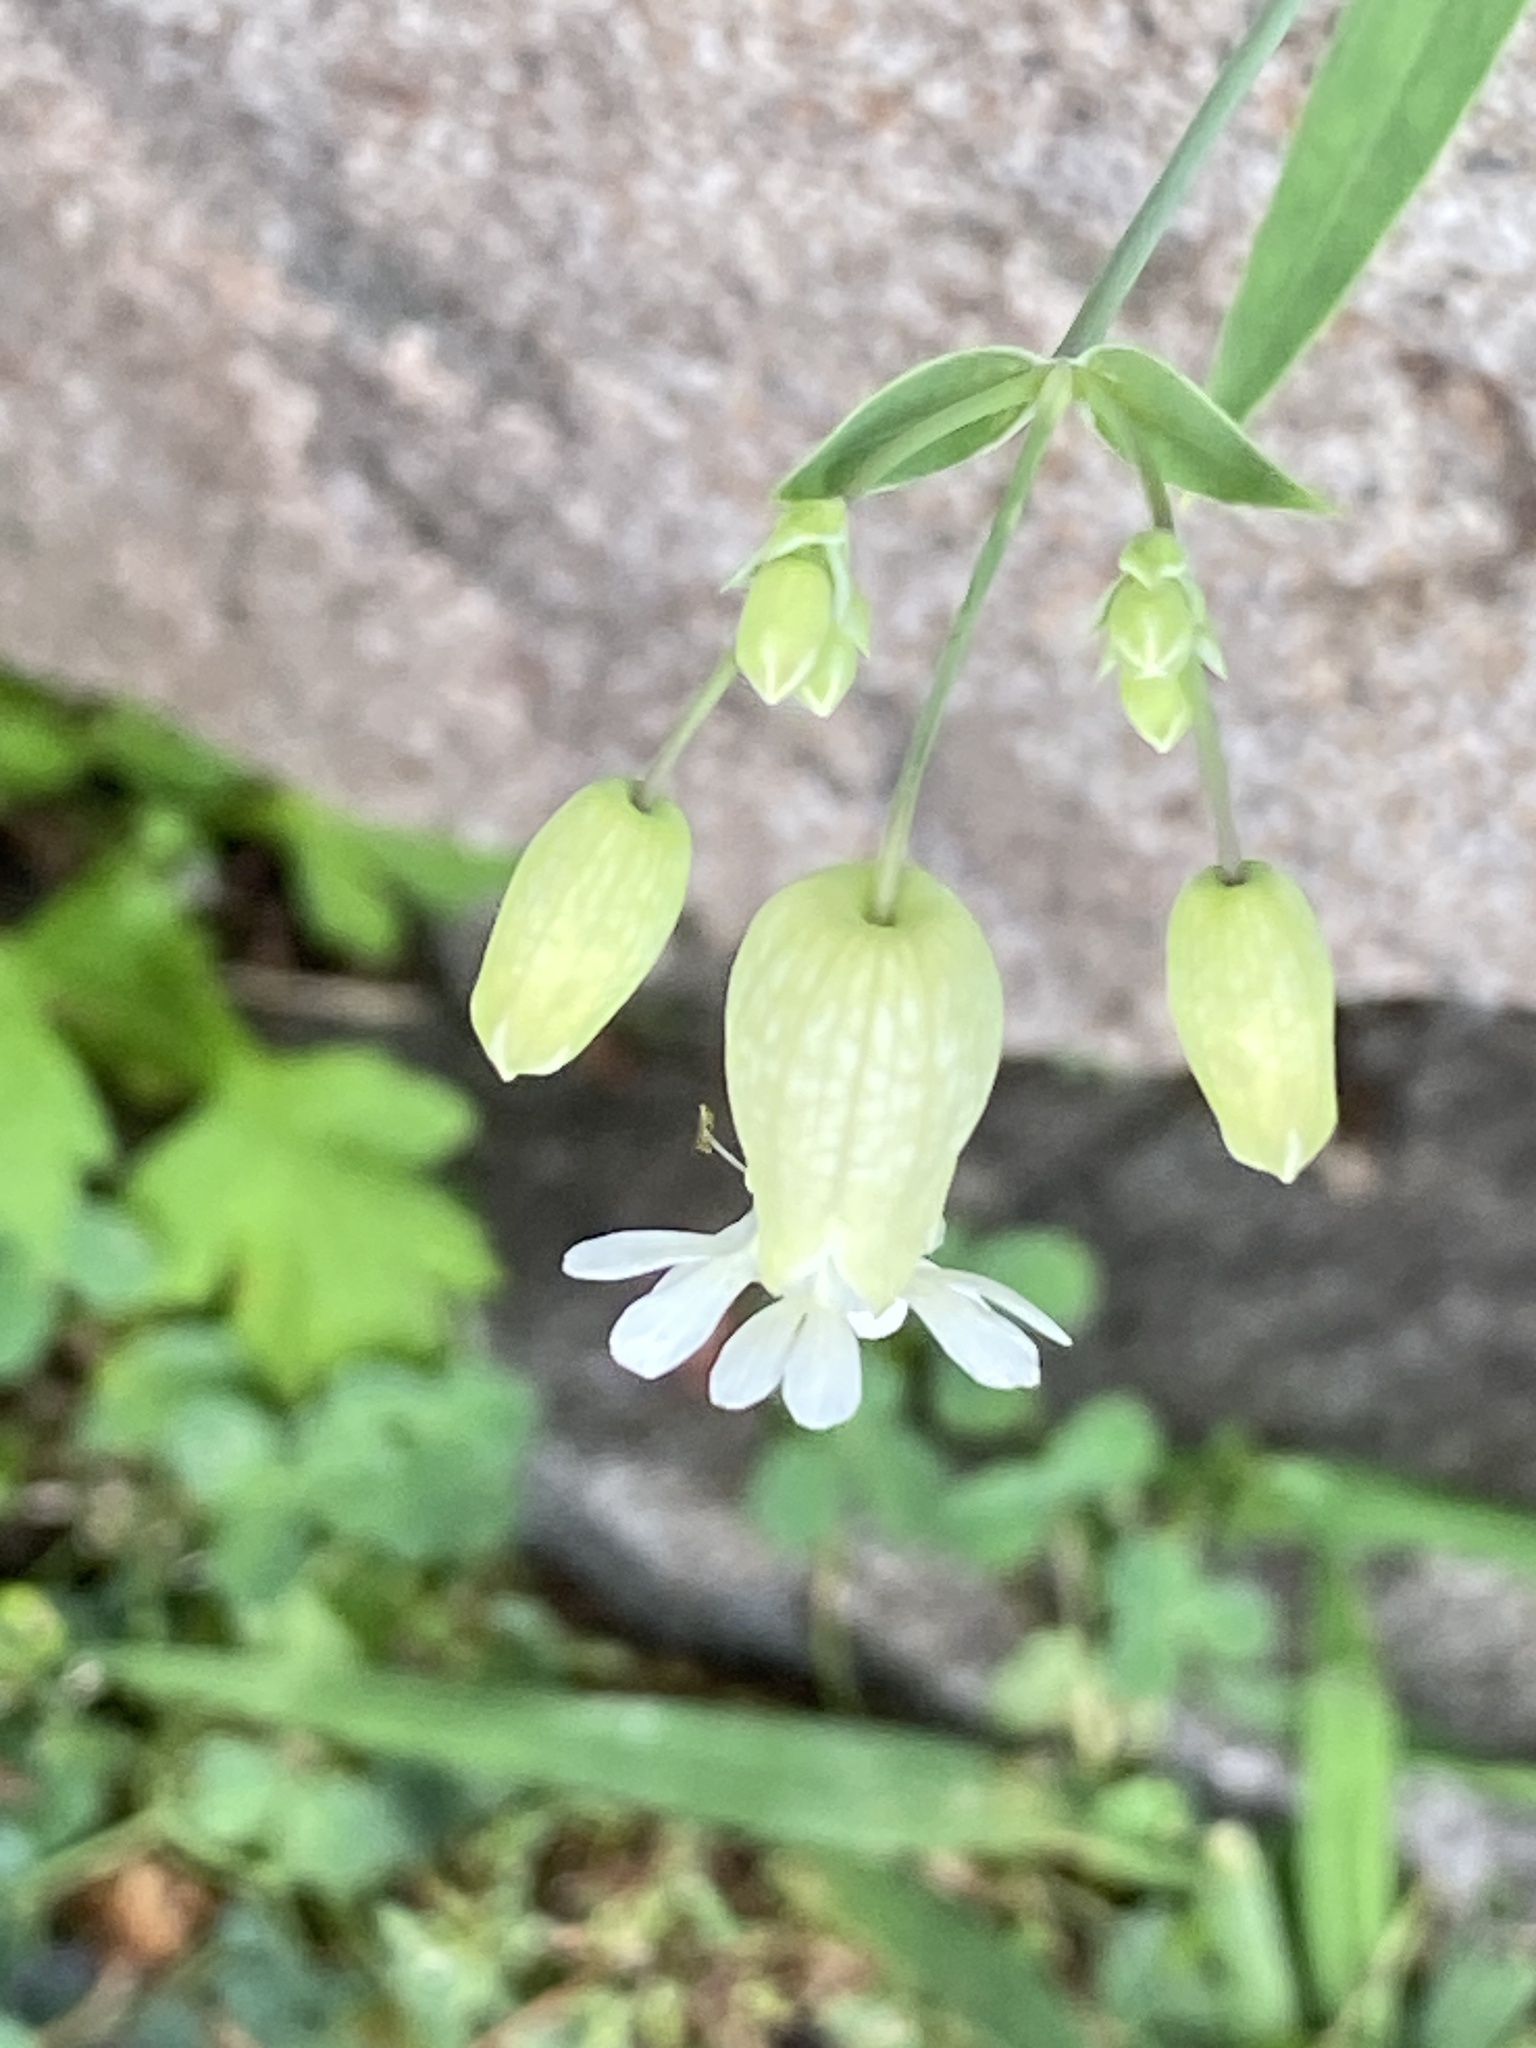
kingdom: Plantae
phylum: Tracheophyta
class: Magnoliopsida
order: Caryophyllales
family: Caryophyllaceae
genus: Silene
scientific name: Silene vulgaris
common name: Bladder campion
